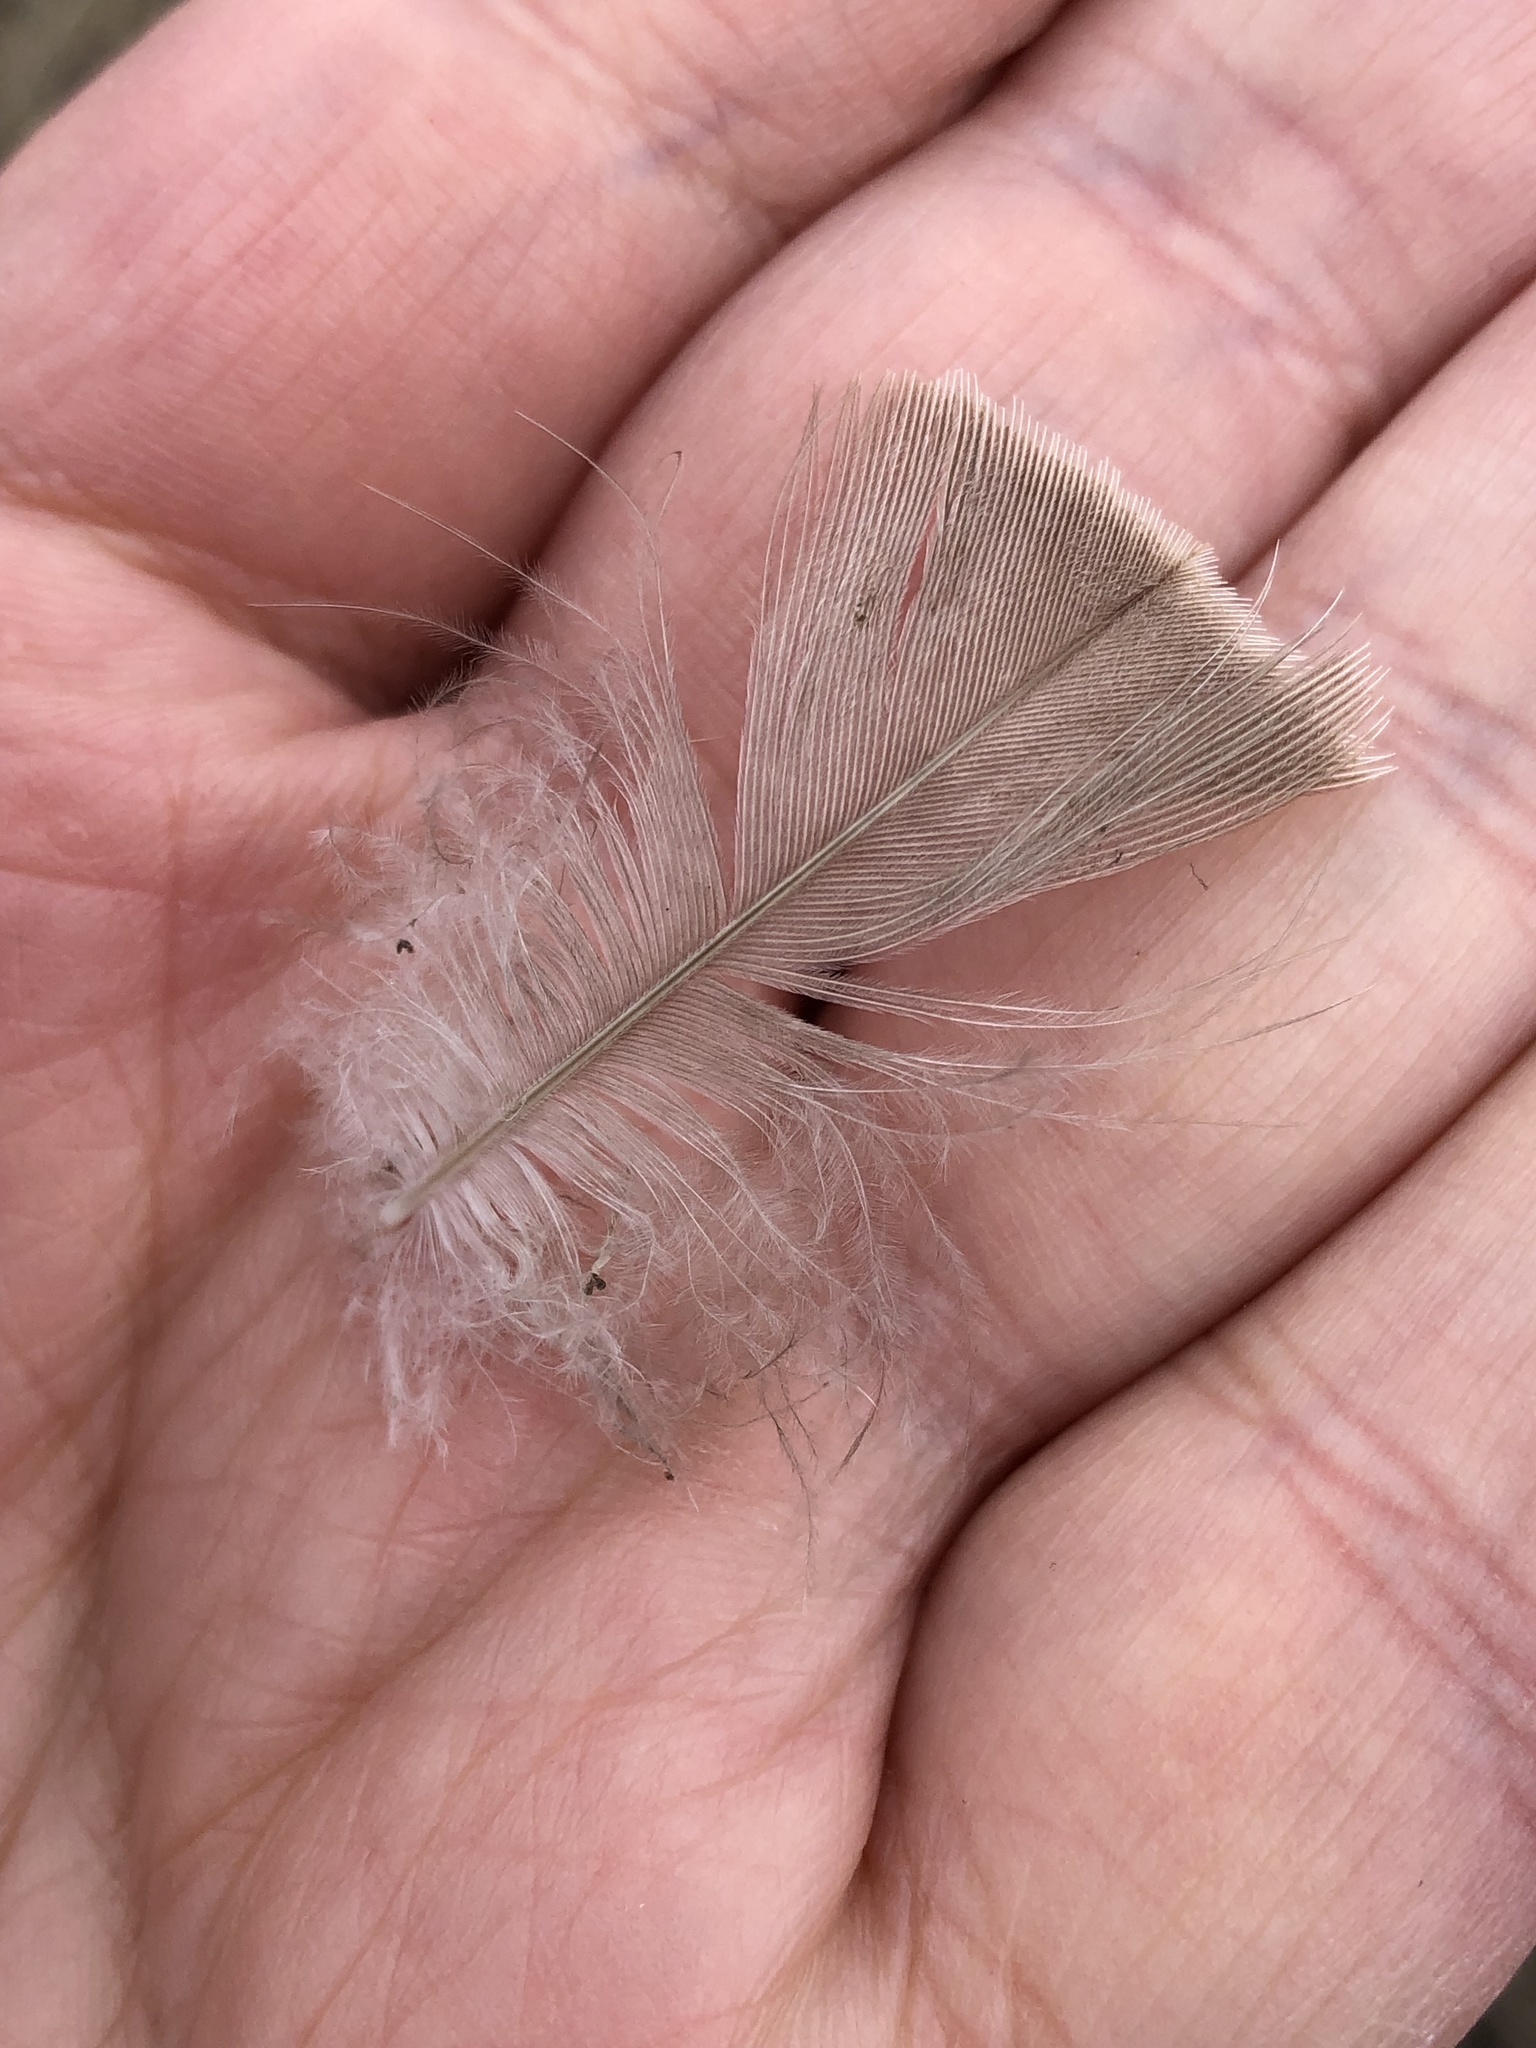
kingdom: Animalia
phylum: Chordata
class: Aves
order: Anseriformes
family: Anatidae
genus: Branta
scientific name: Branta canadensis
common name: Canada goose
